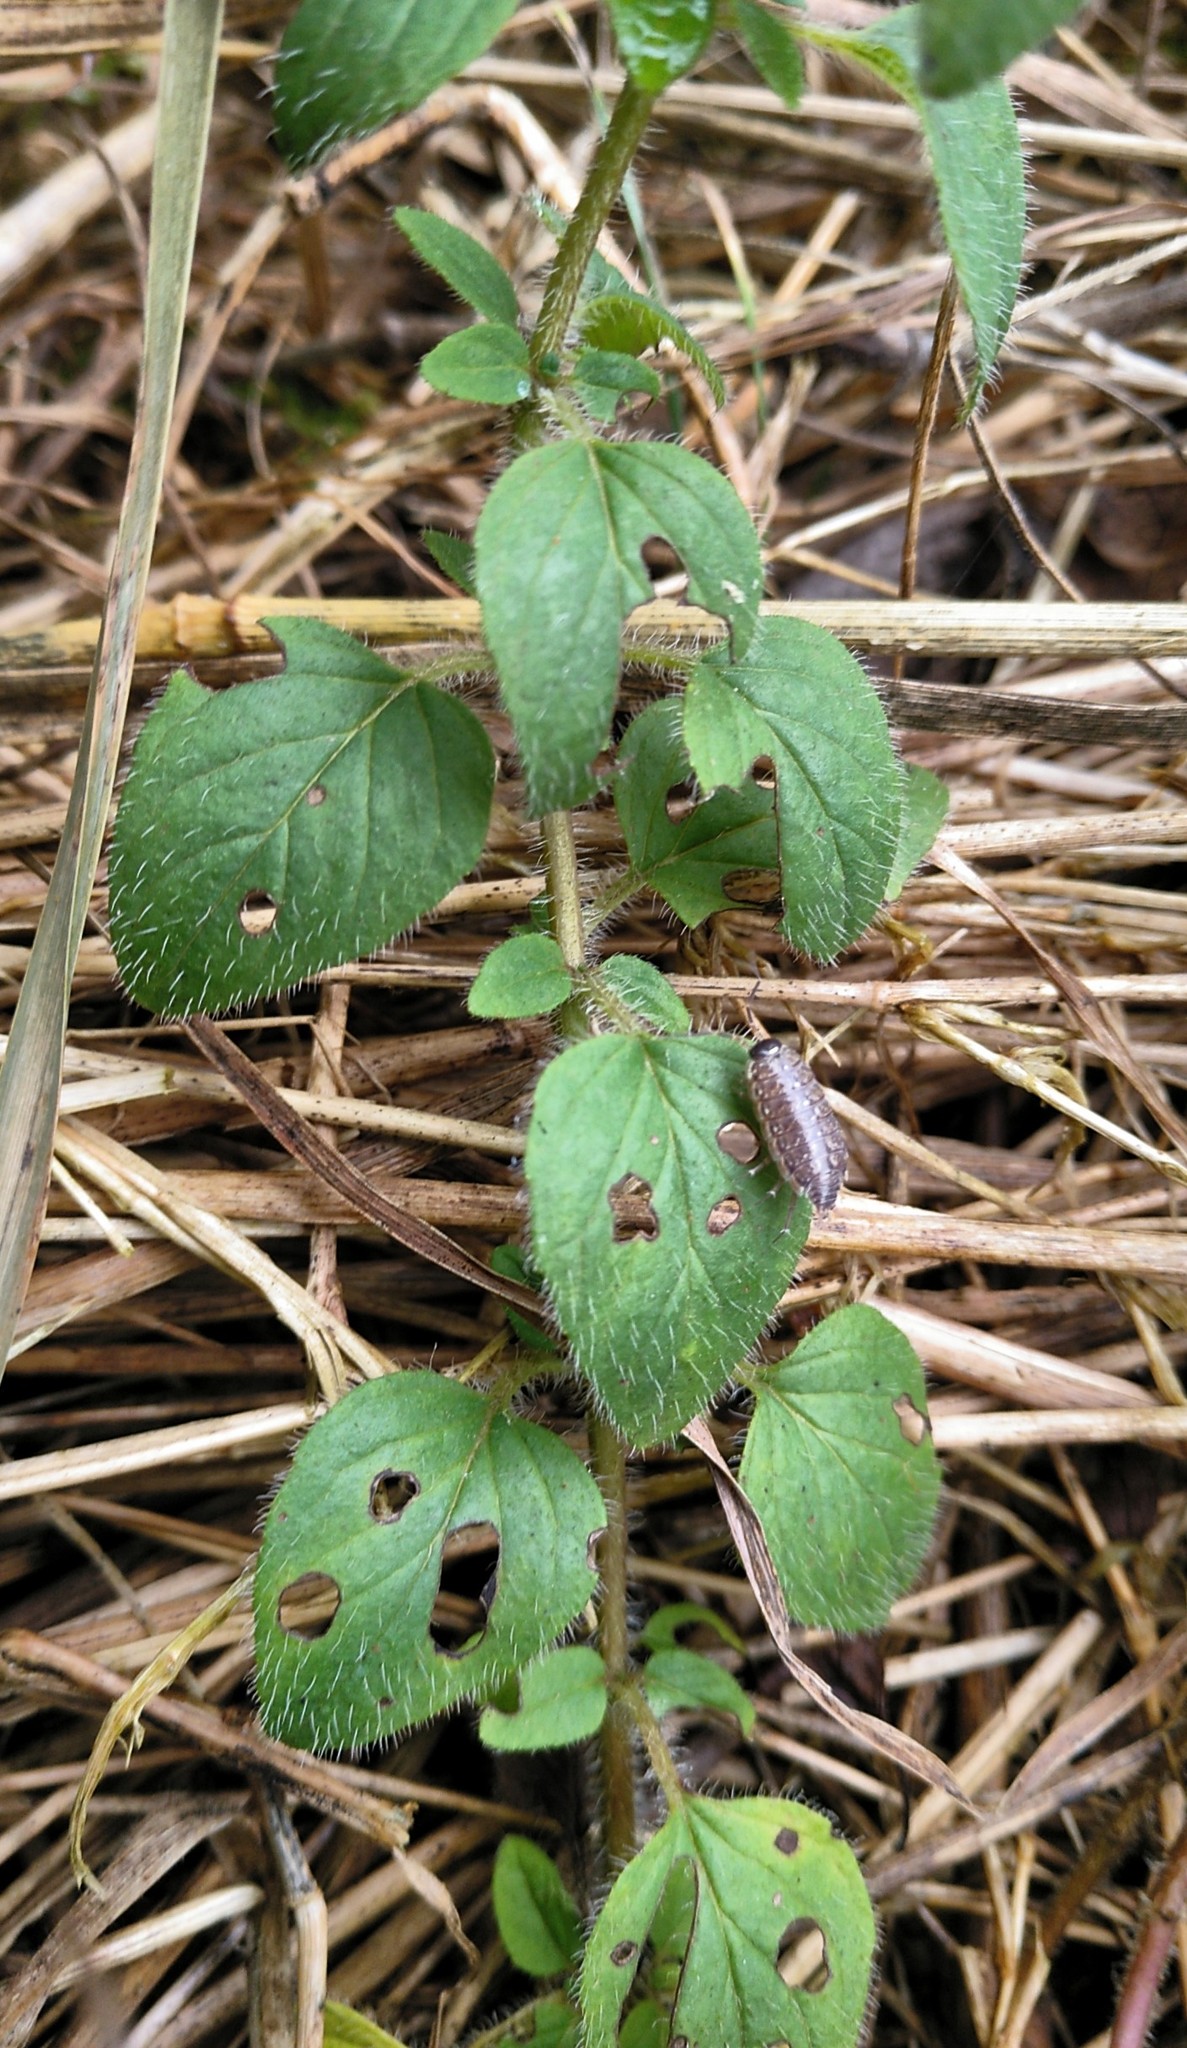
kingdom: Animalia
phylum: Arthropoda
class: Malacostraca
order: Isopoda
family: Philosciidae
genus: Philoscia
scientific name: Philoscia muscorum
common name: Common striped woodlouse
